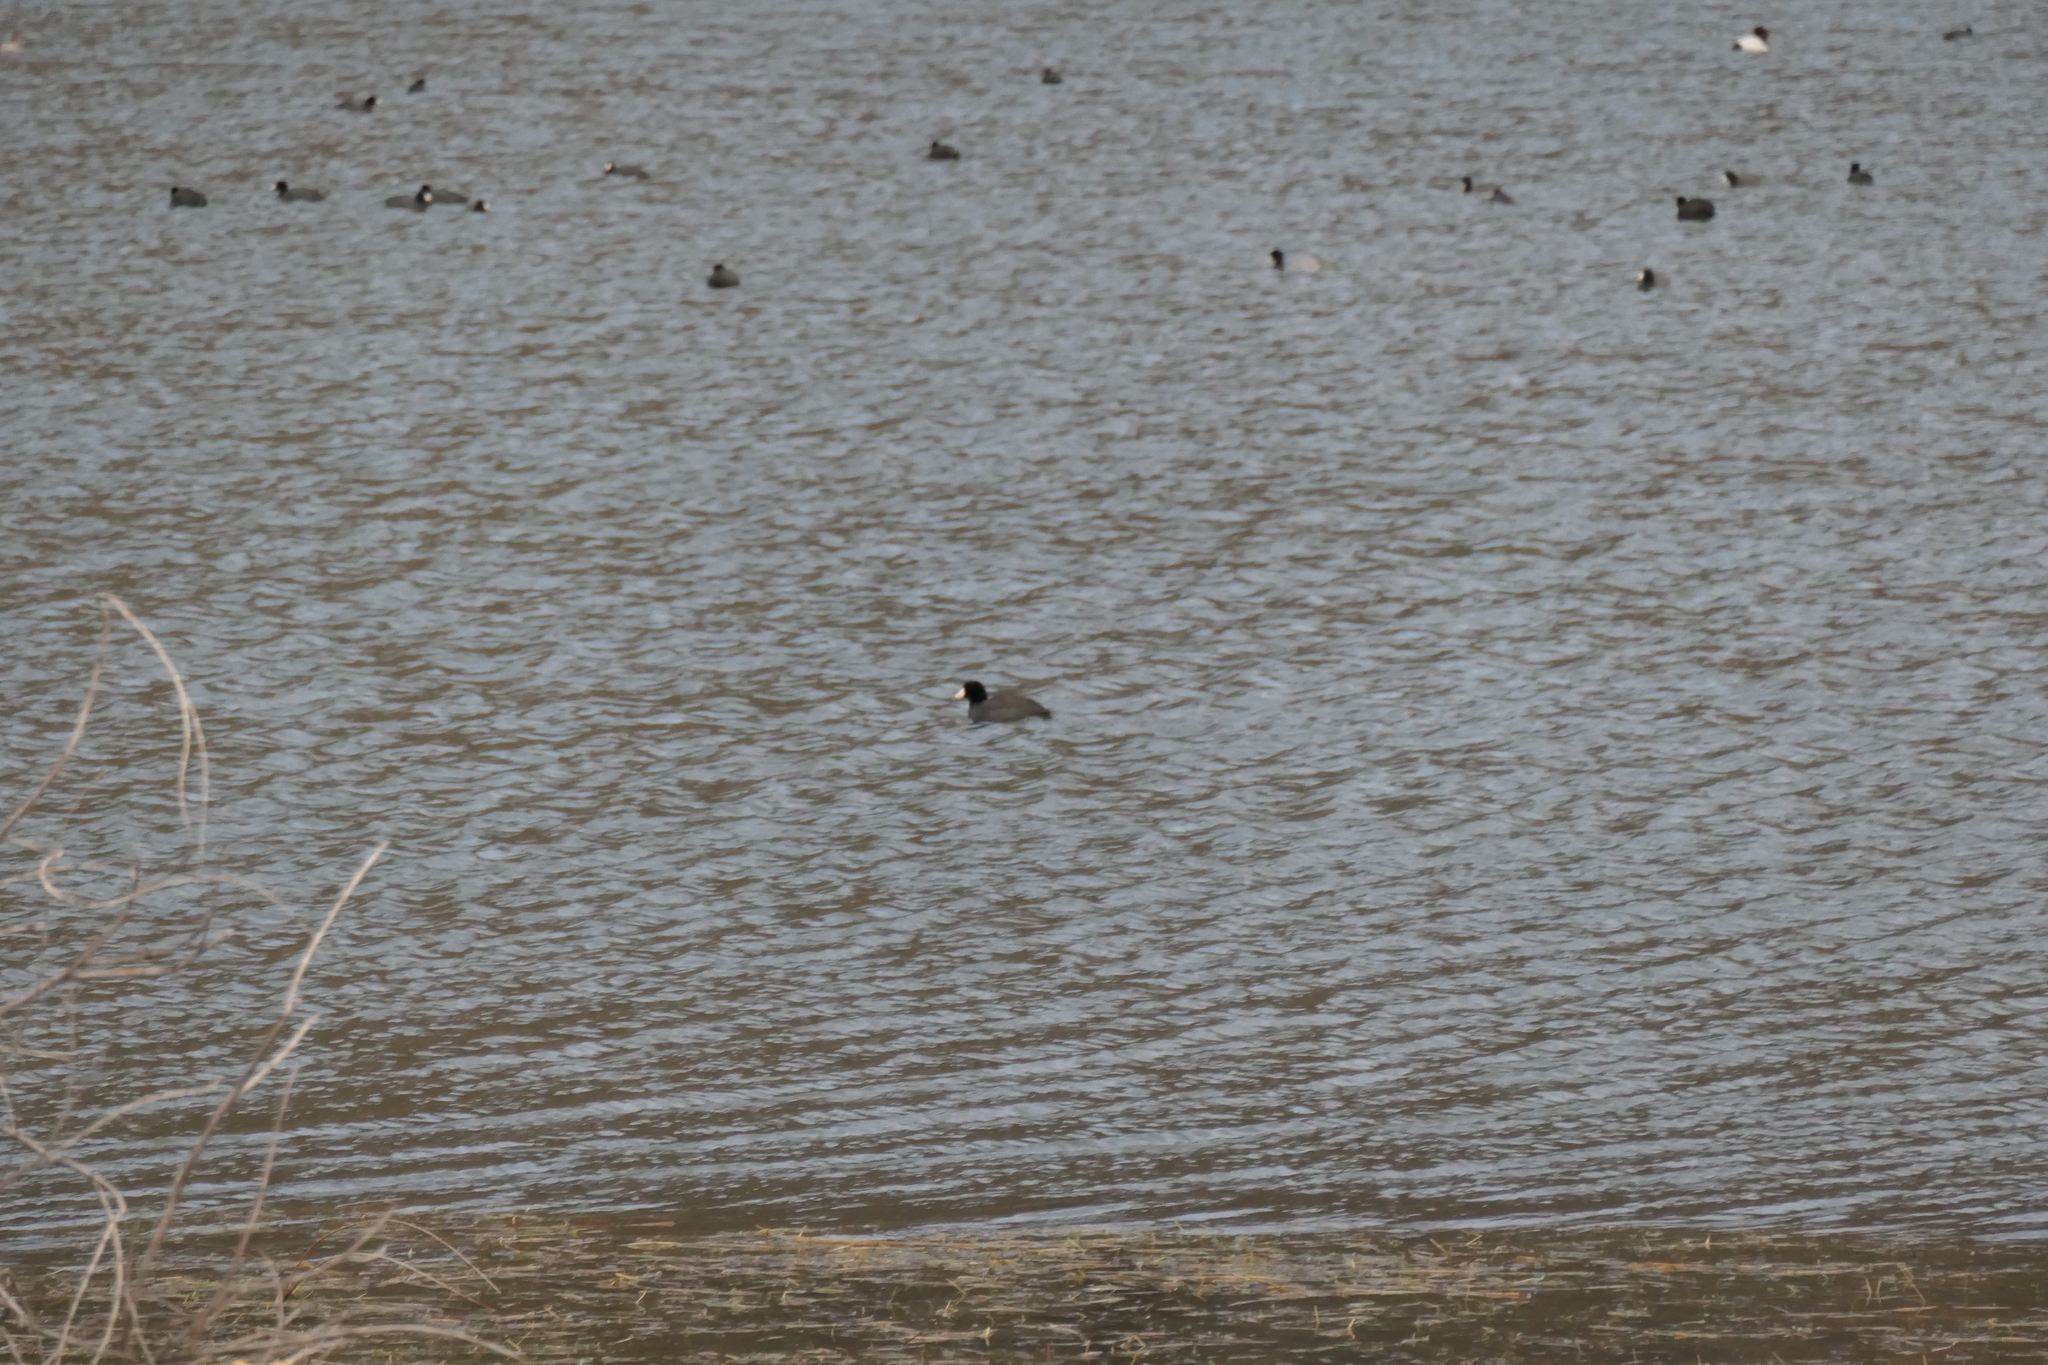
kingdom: Animalia
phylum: Chordata
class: Aves
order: Gruiformes
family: Rallidae
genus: Fulica
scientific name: Fulica americana
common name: American coot
